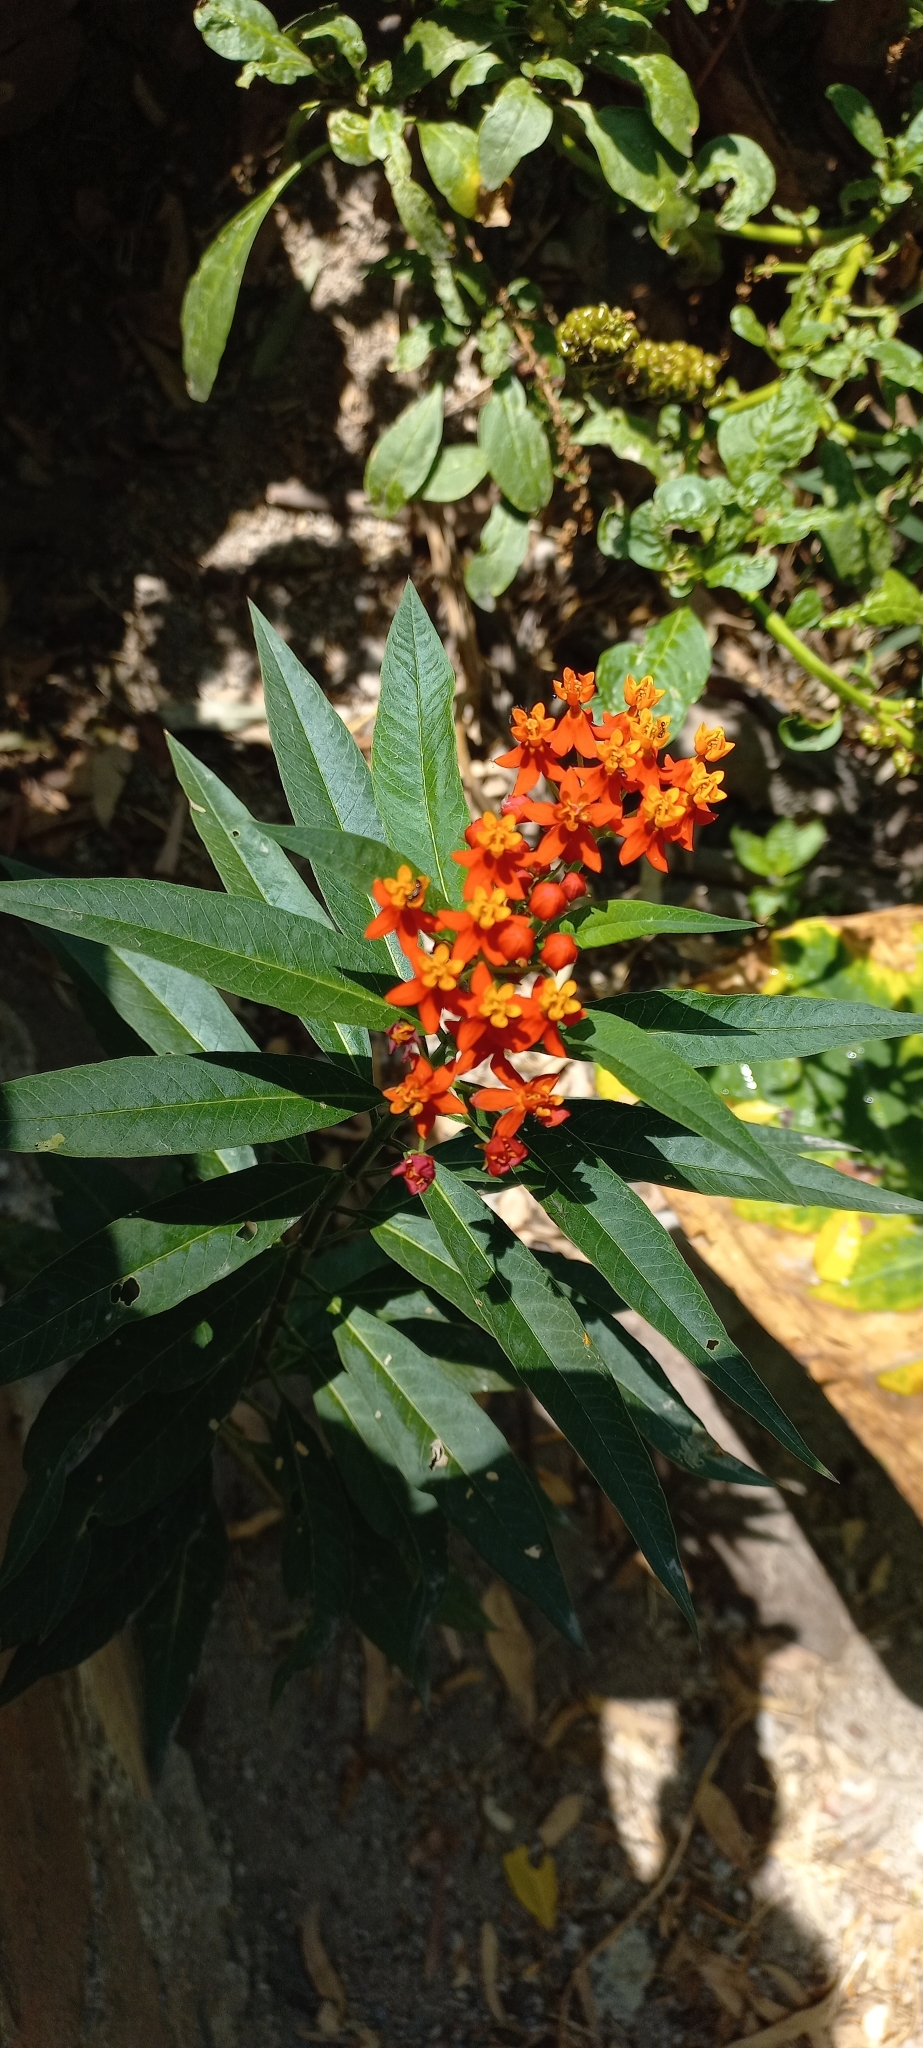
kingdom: Plantae
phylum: Tracheophyta
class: Magnoliopsida
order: Gentianales
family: Apocynaceae
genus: Asclepias
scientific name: Asclepias curassavica
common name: Bloodflower
